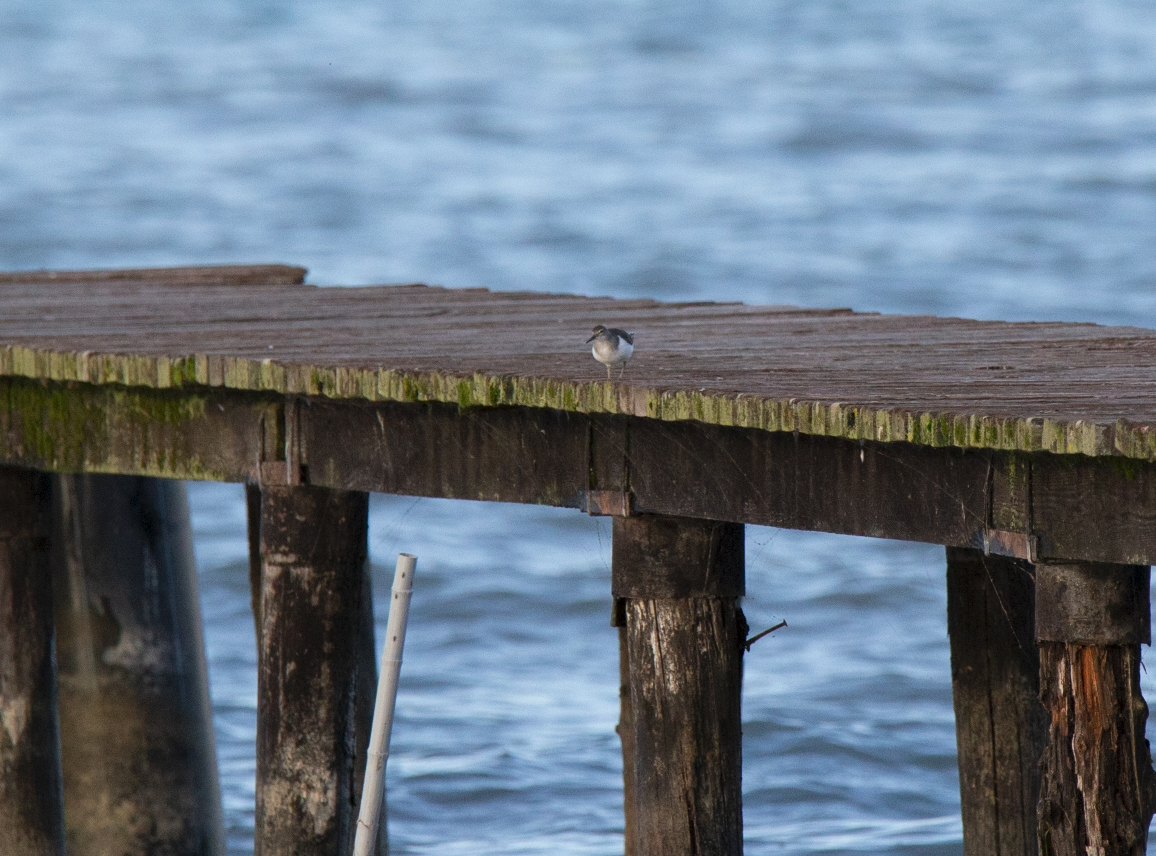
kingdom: Animalia
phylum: Chordata
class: Aves
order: Charadriiformes
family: Scolopacidae
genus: Actitis
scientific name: Actitis hypoleucos
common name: Common sandpiper
